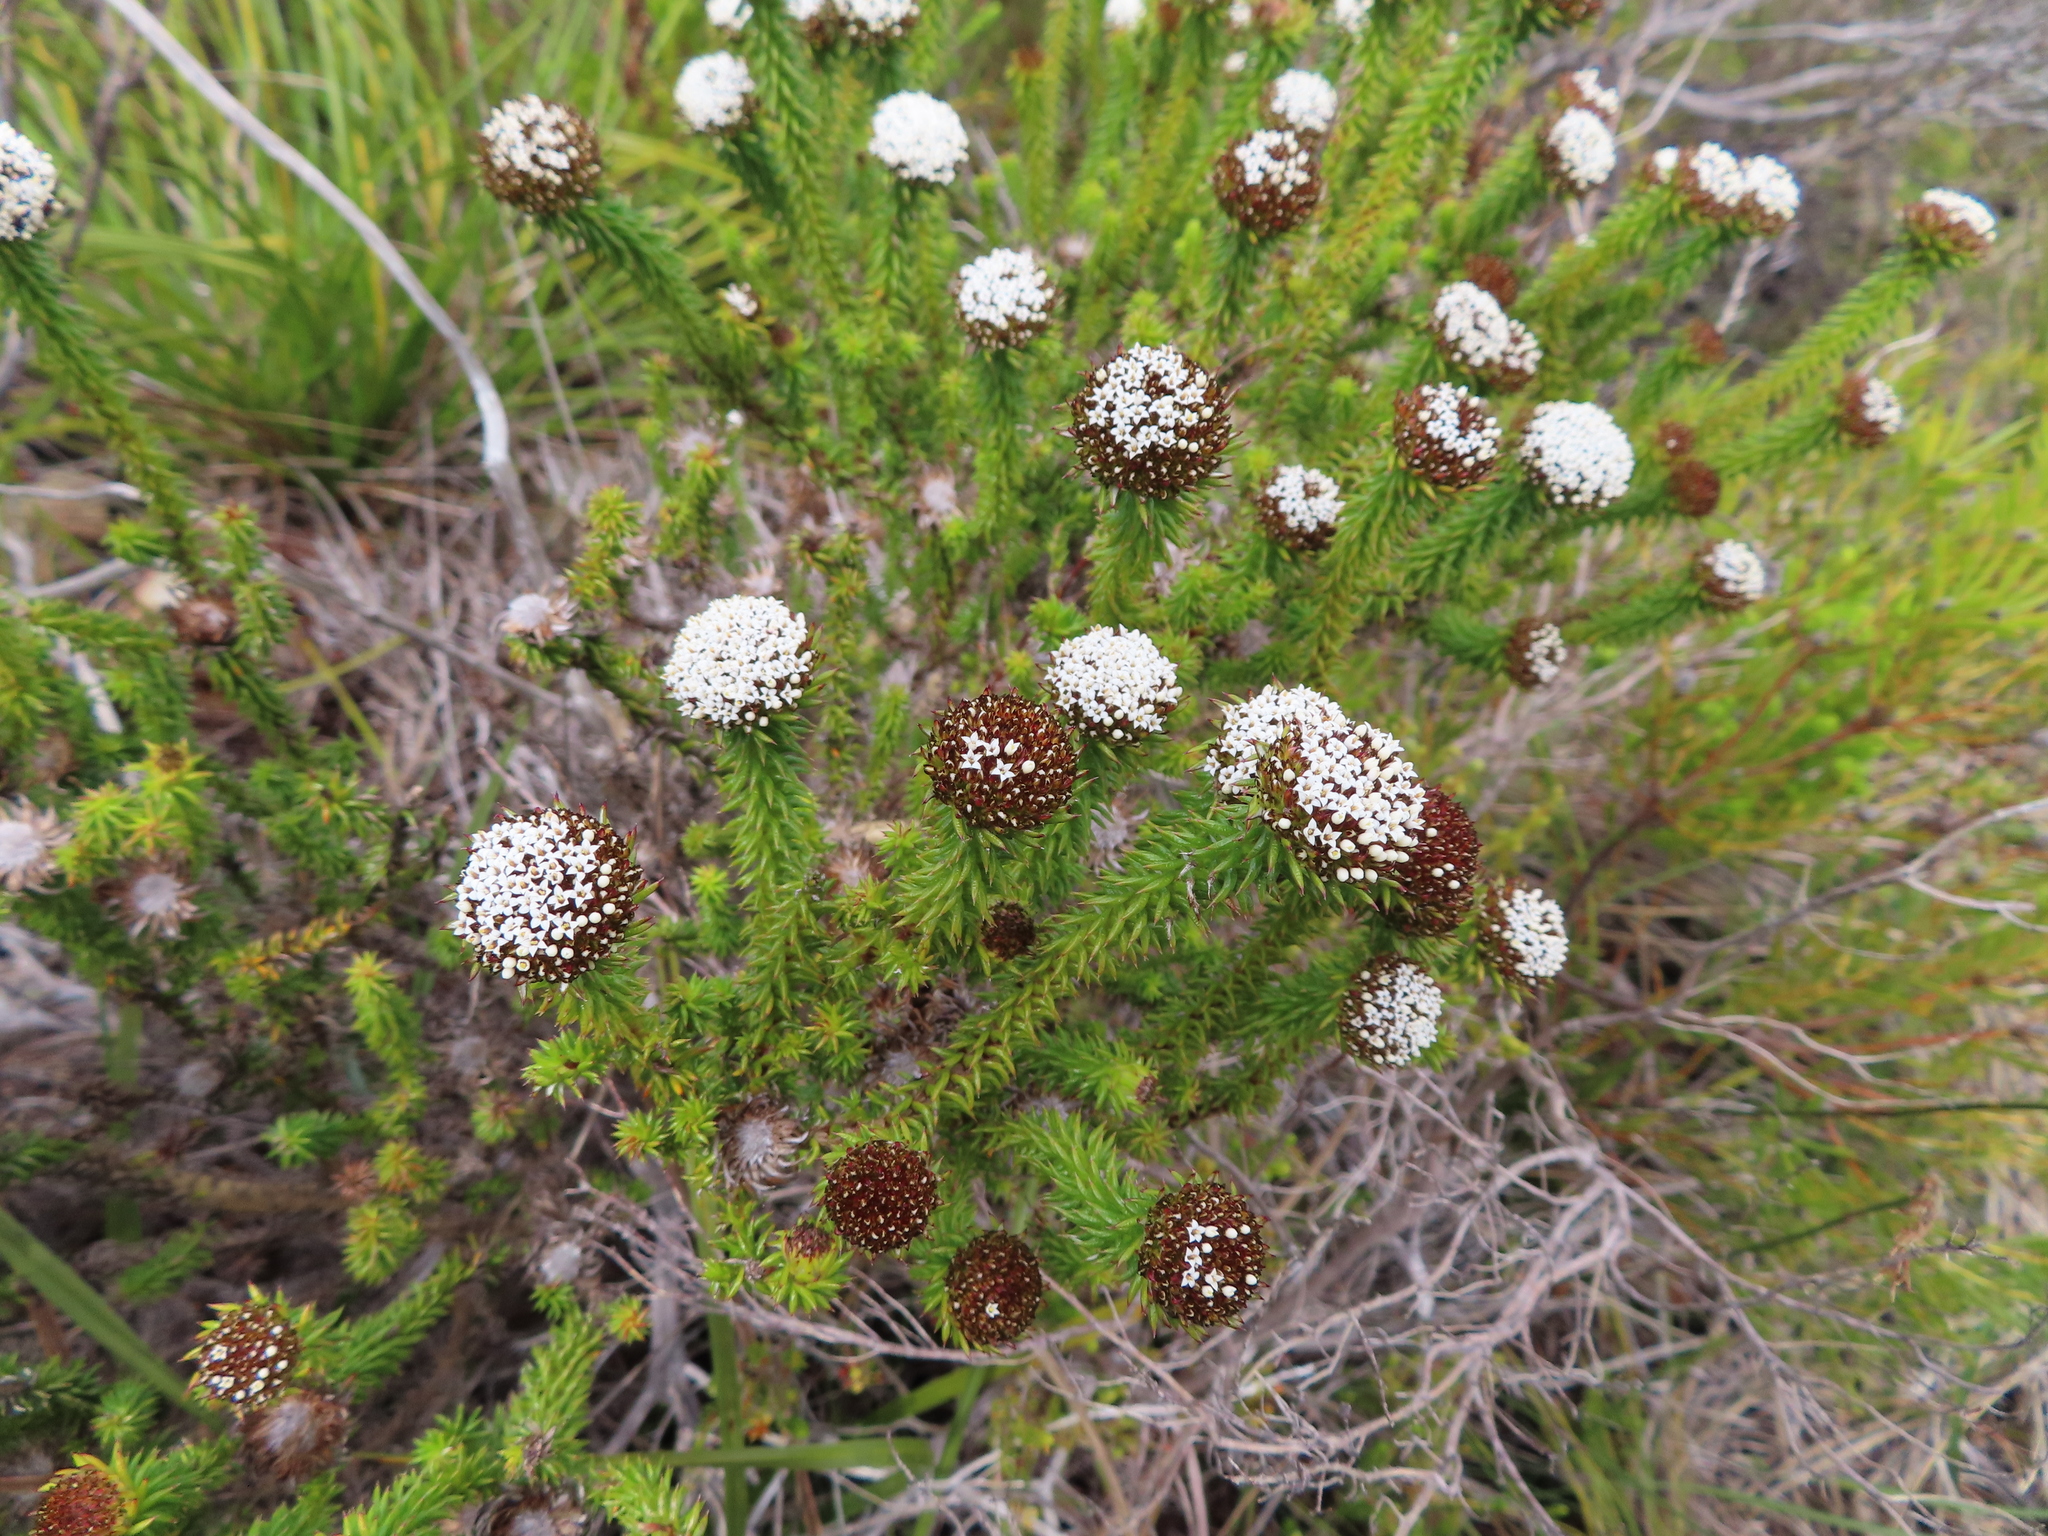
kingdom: Plantae
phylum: Tracheophyta
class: Magnoliopsida
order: Asterales
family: Asteraceae
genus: Stoebe
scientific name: Stoebe aethiopica
